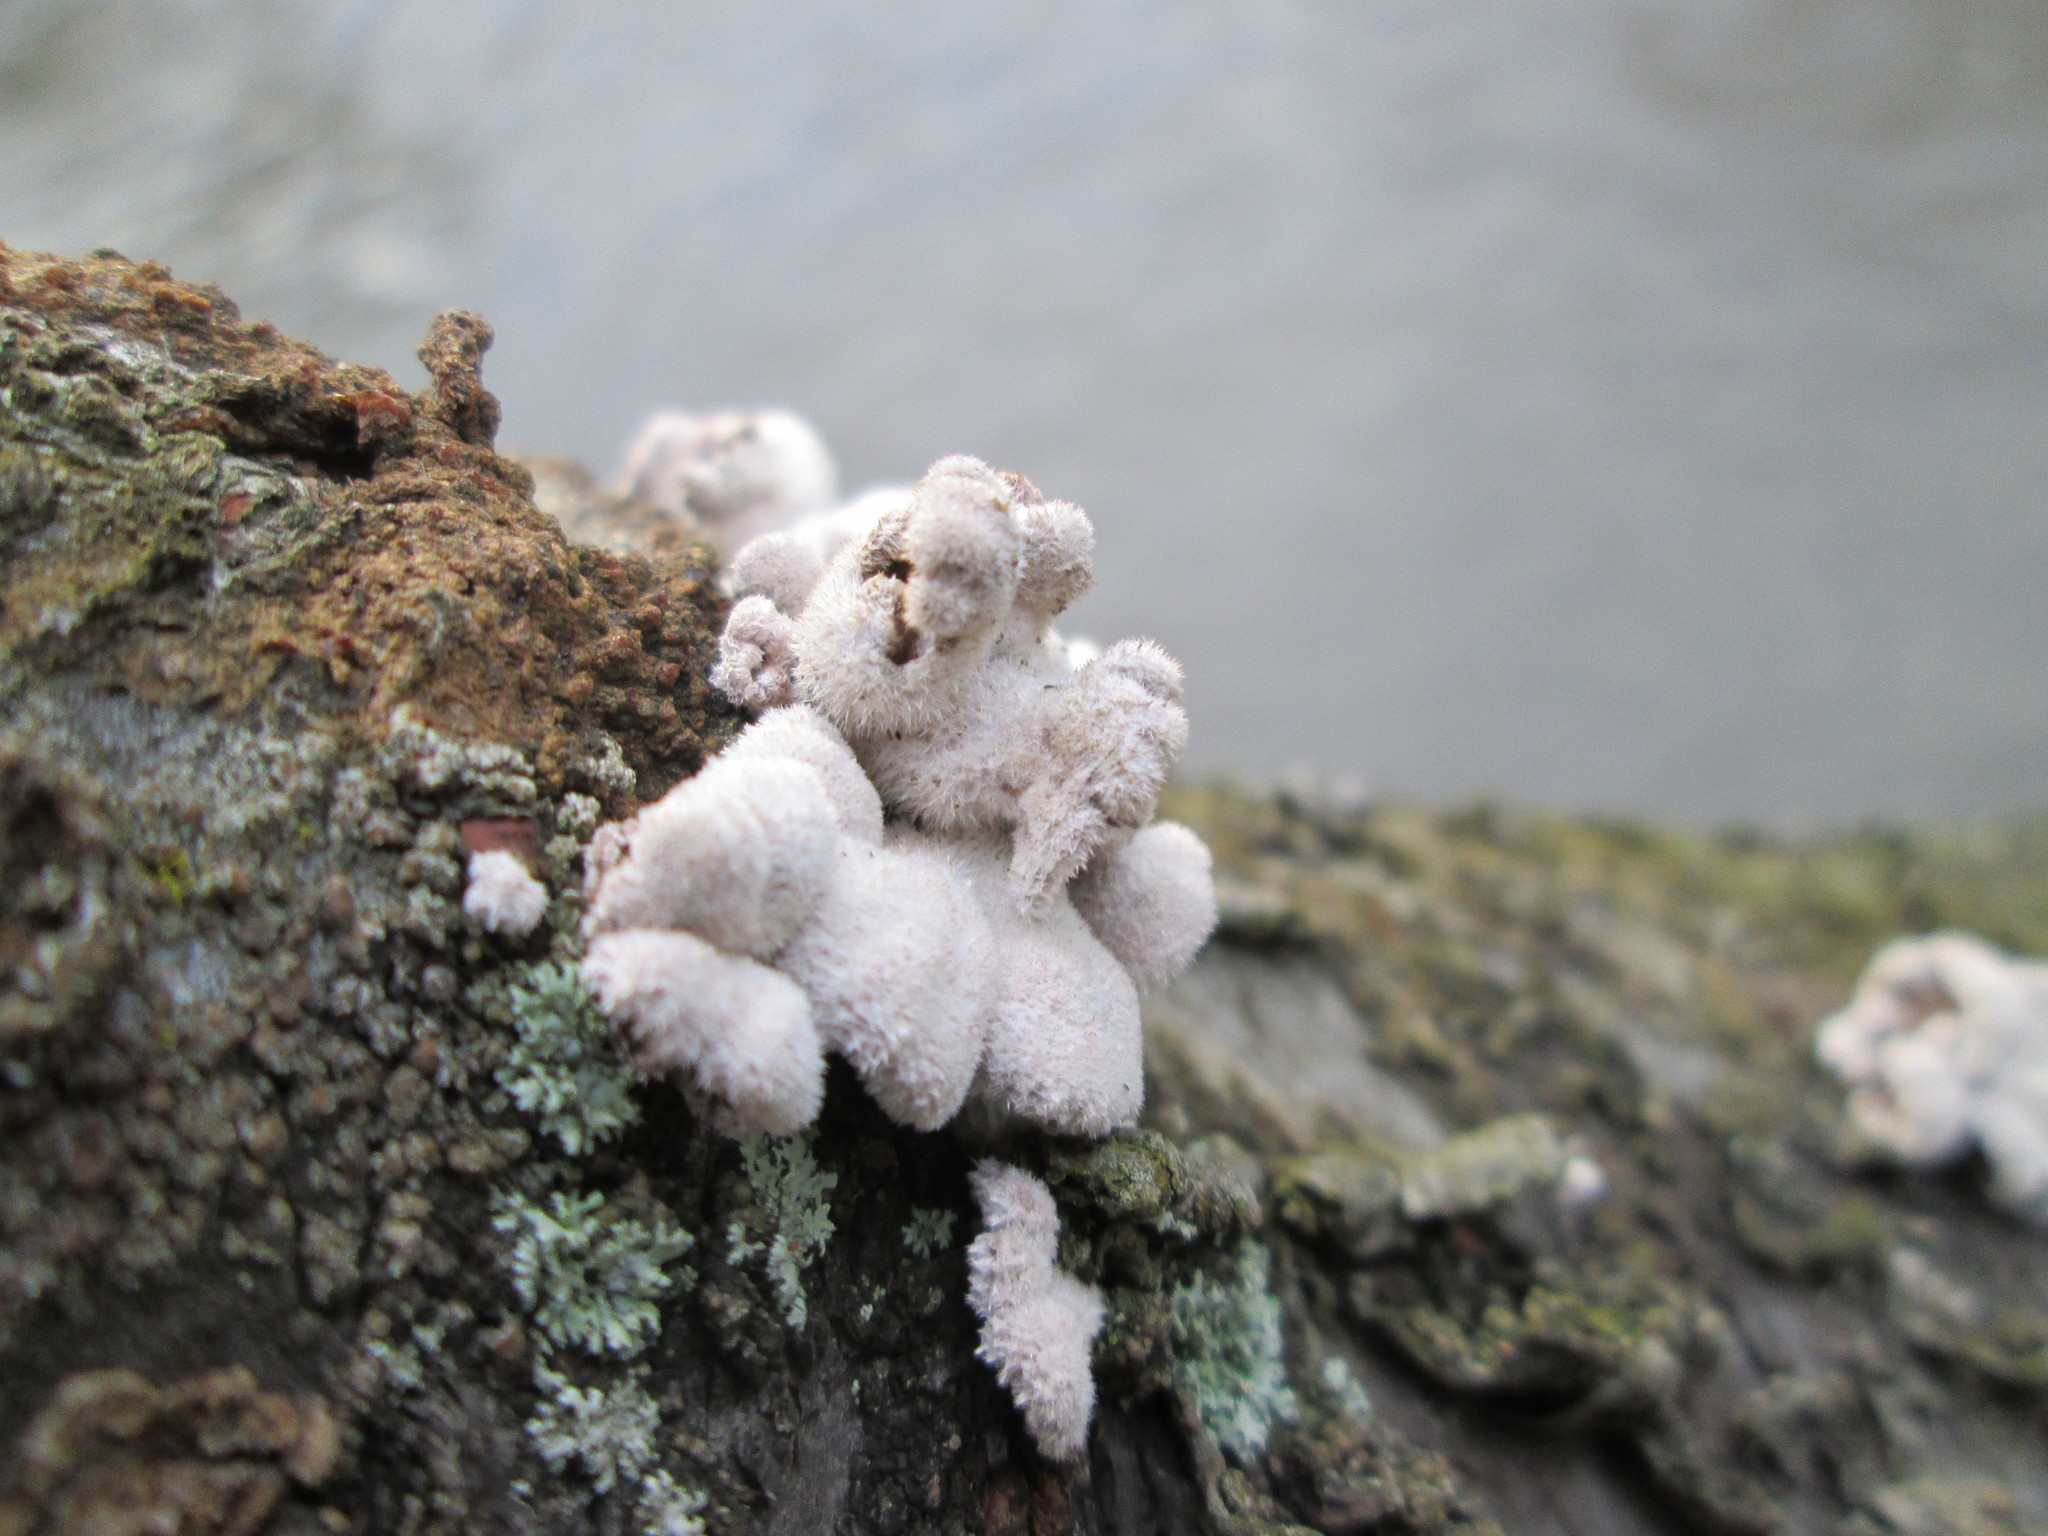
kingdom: Fungi
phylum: Basidiomycota
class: Agaricomycetes
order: Agaricales
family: Schizophyllaceae
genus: Schizophyllum
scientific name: Schizophyllum commune
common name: Common porecrust
